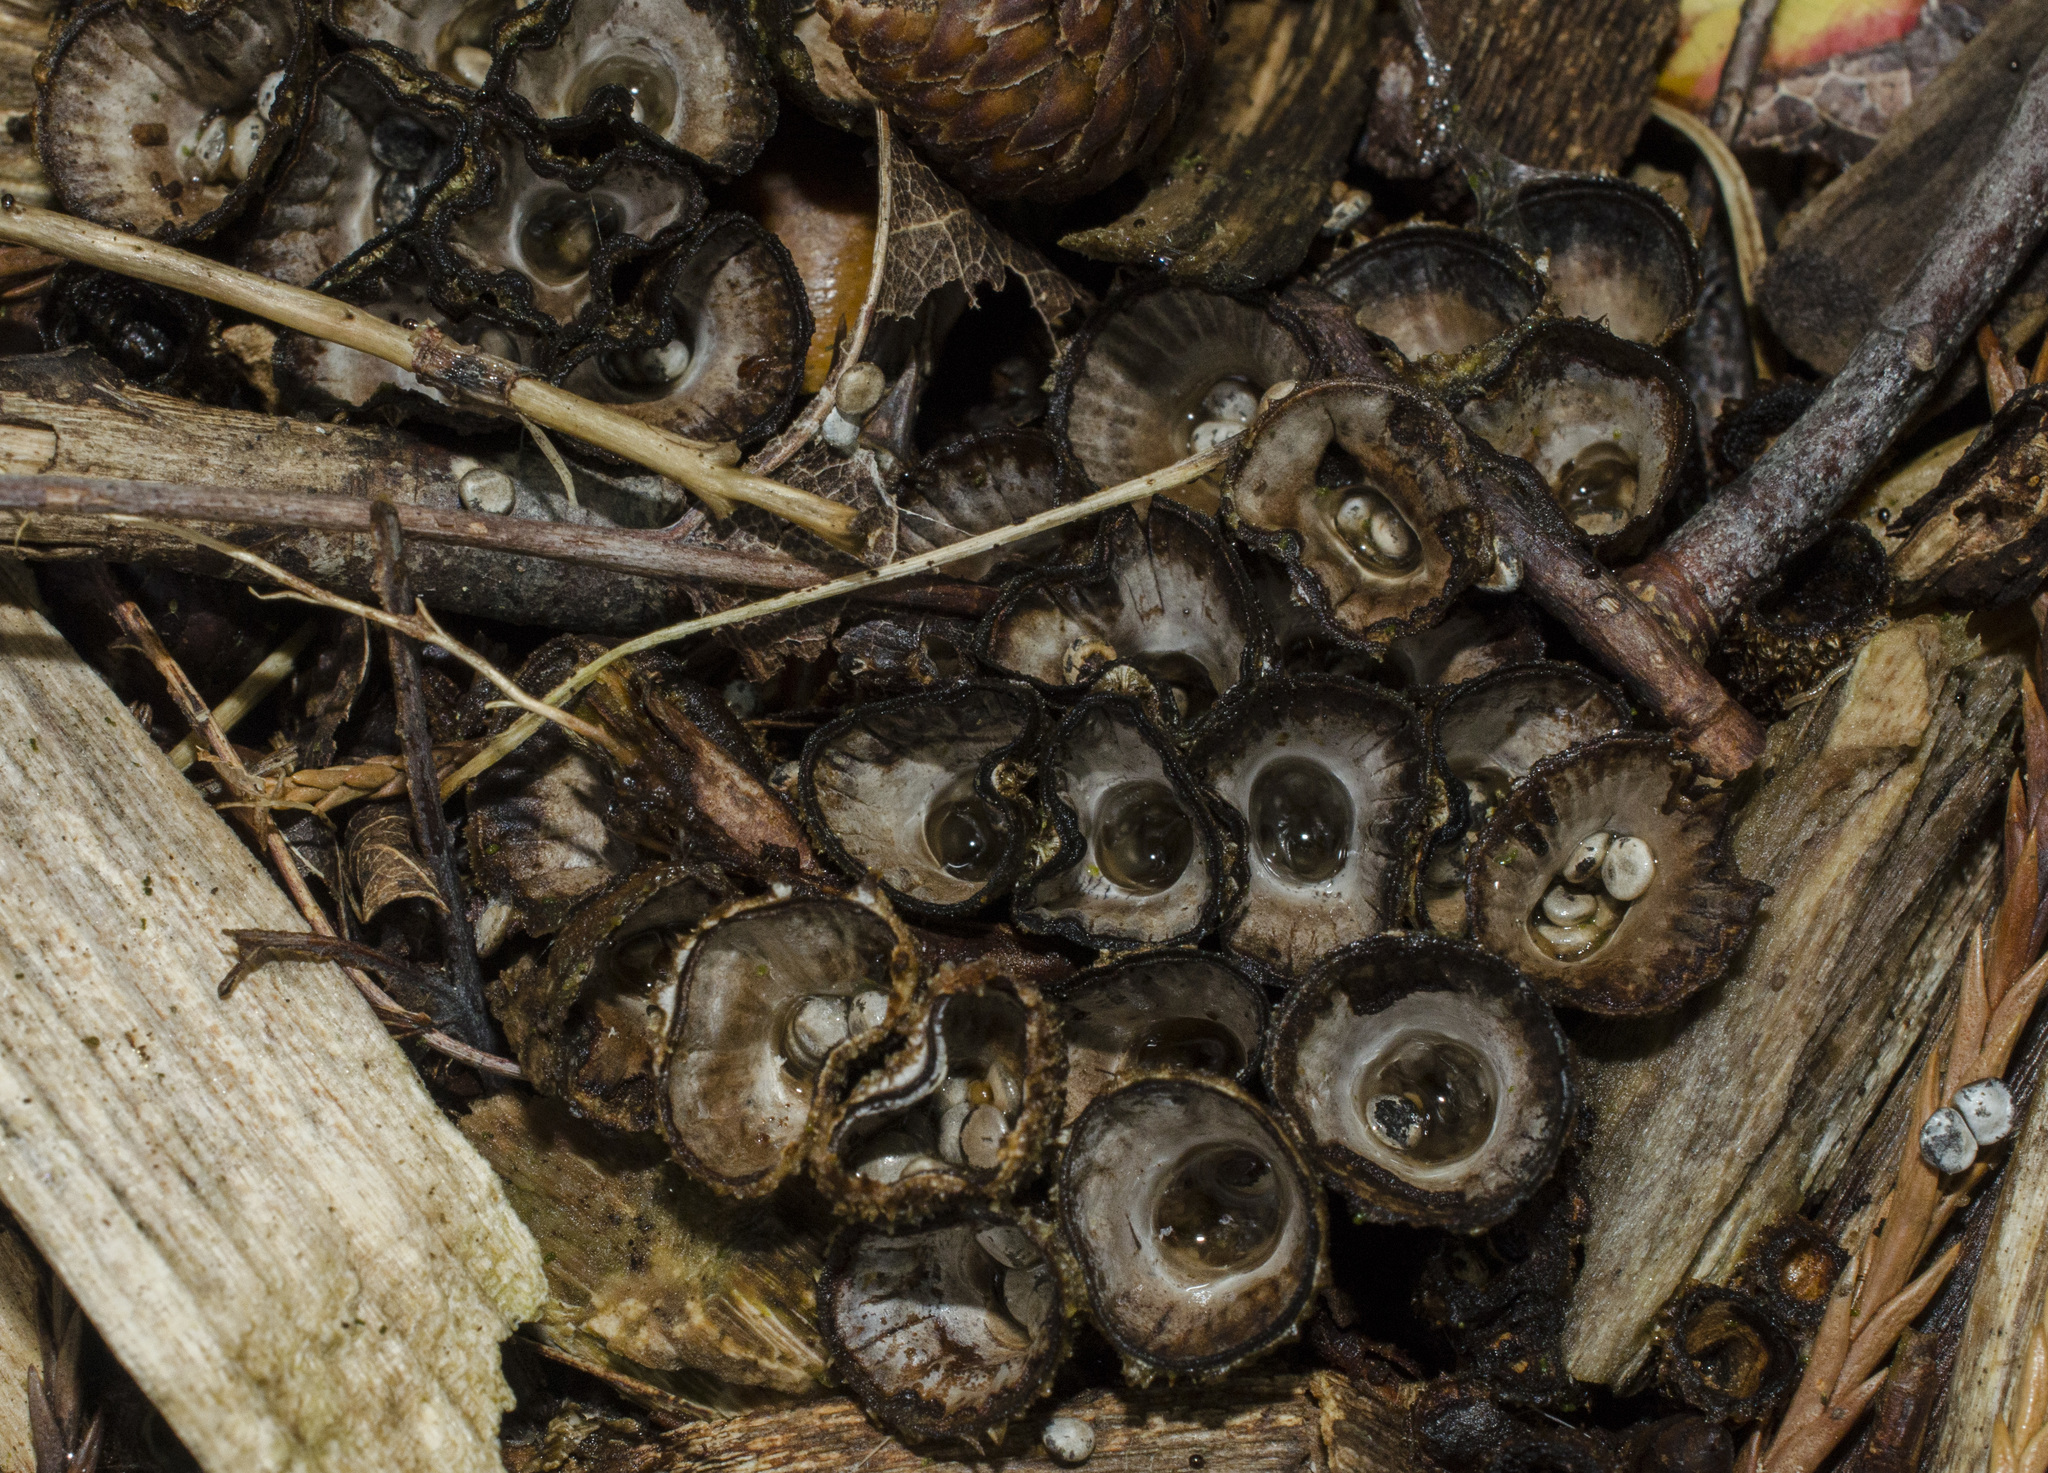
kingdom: Fungi
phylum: Basidiomycota
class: Agaricomycetes
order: Agaricales
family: Agaricaceae
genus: Cyathus
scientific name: Cyathus striatus
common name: Fluted bird's nest
